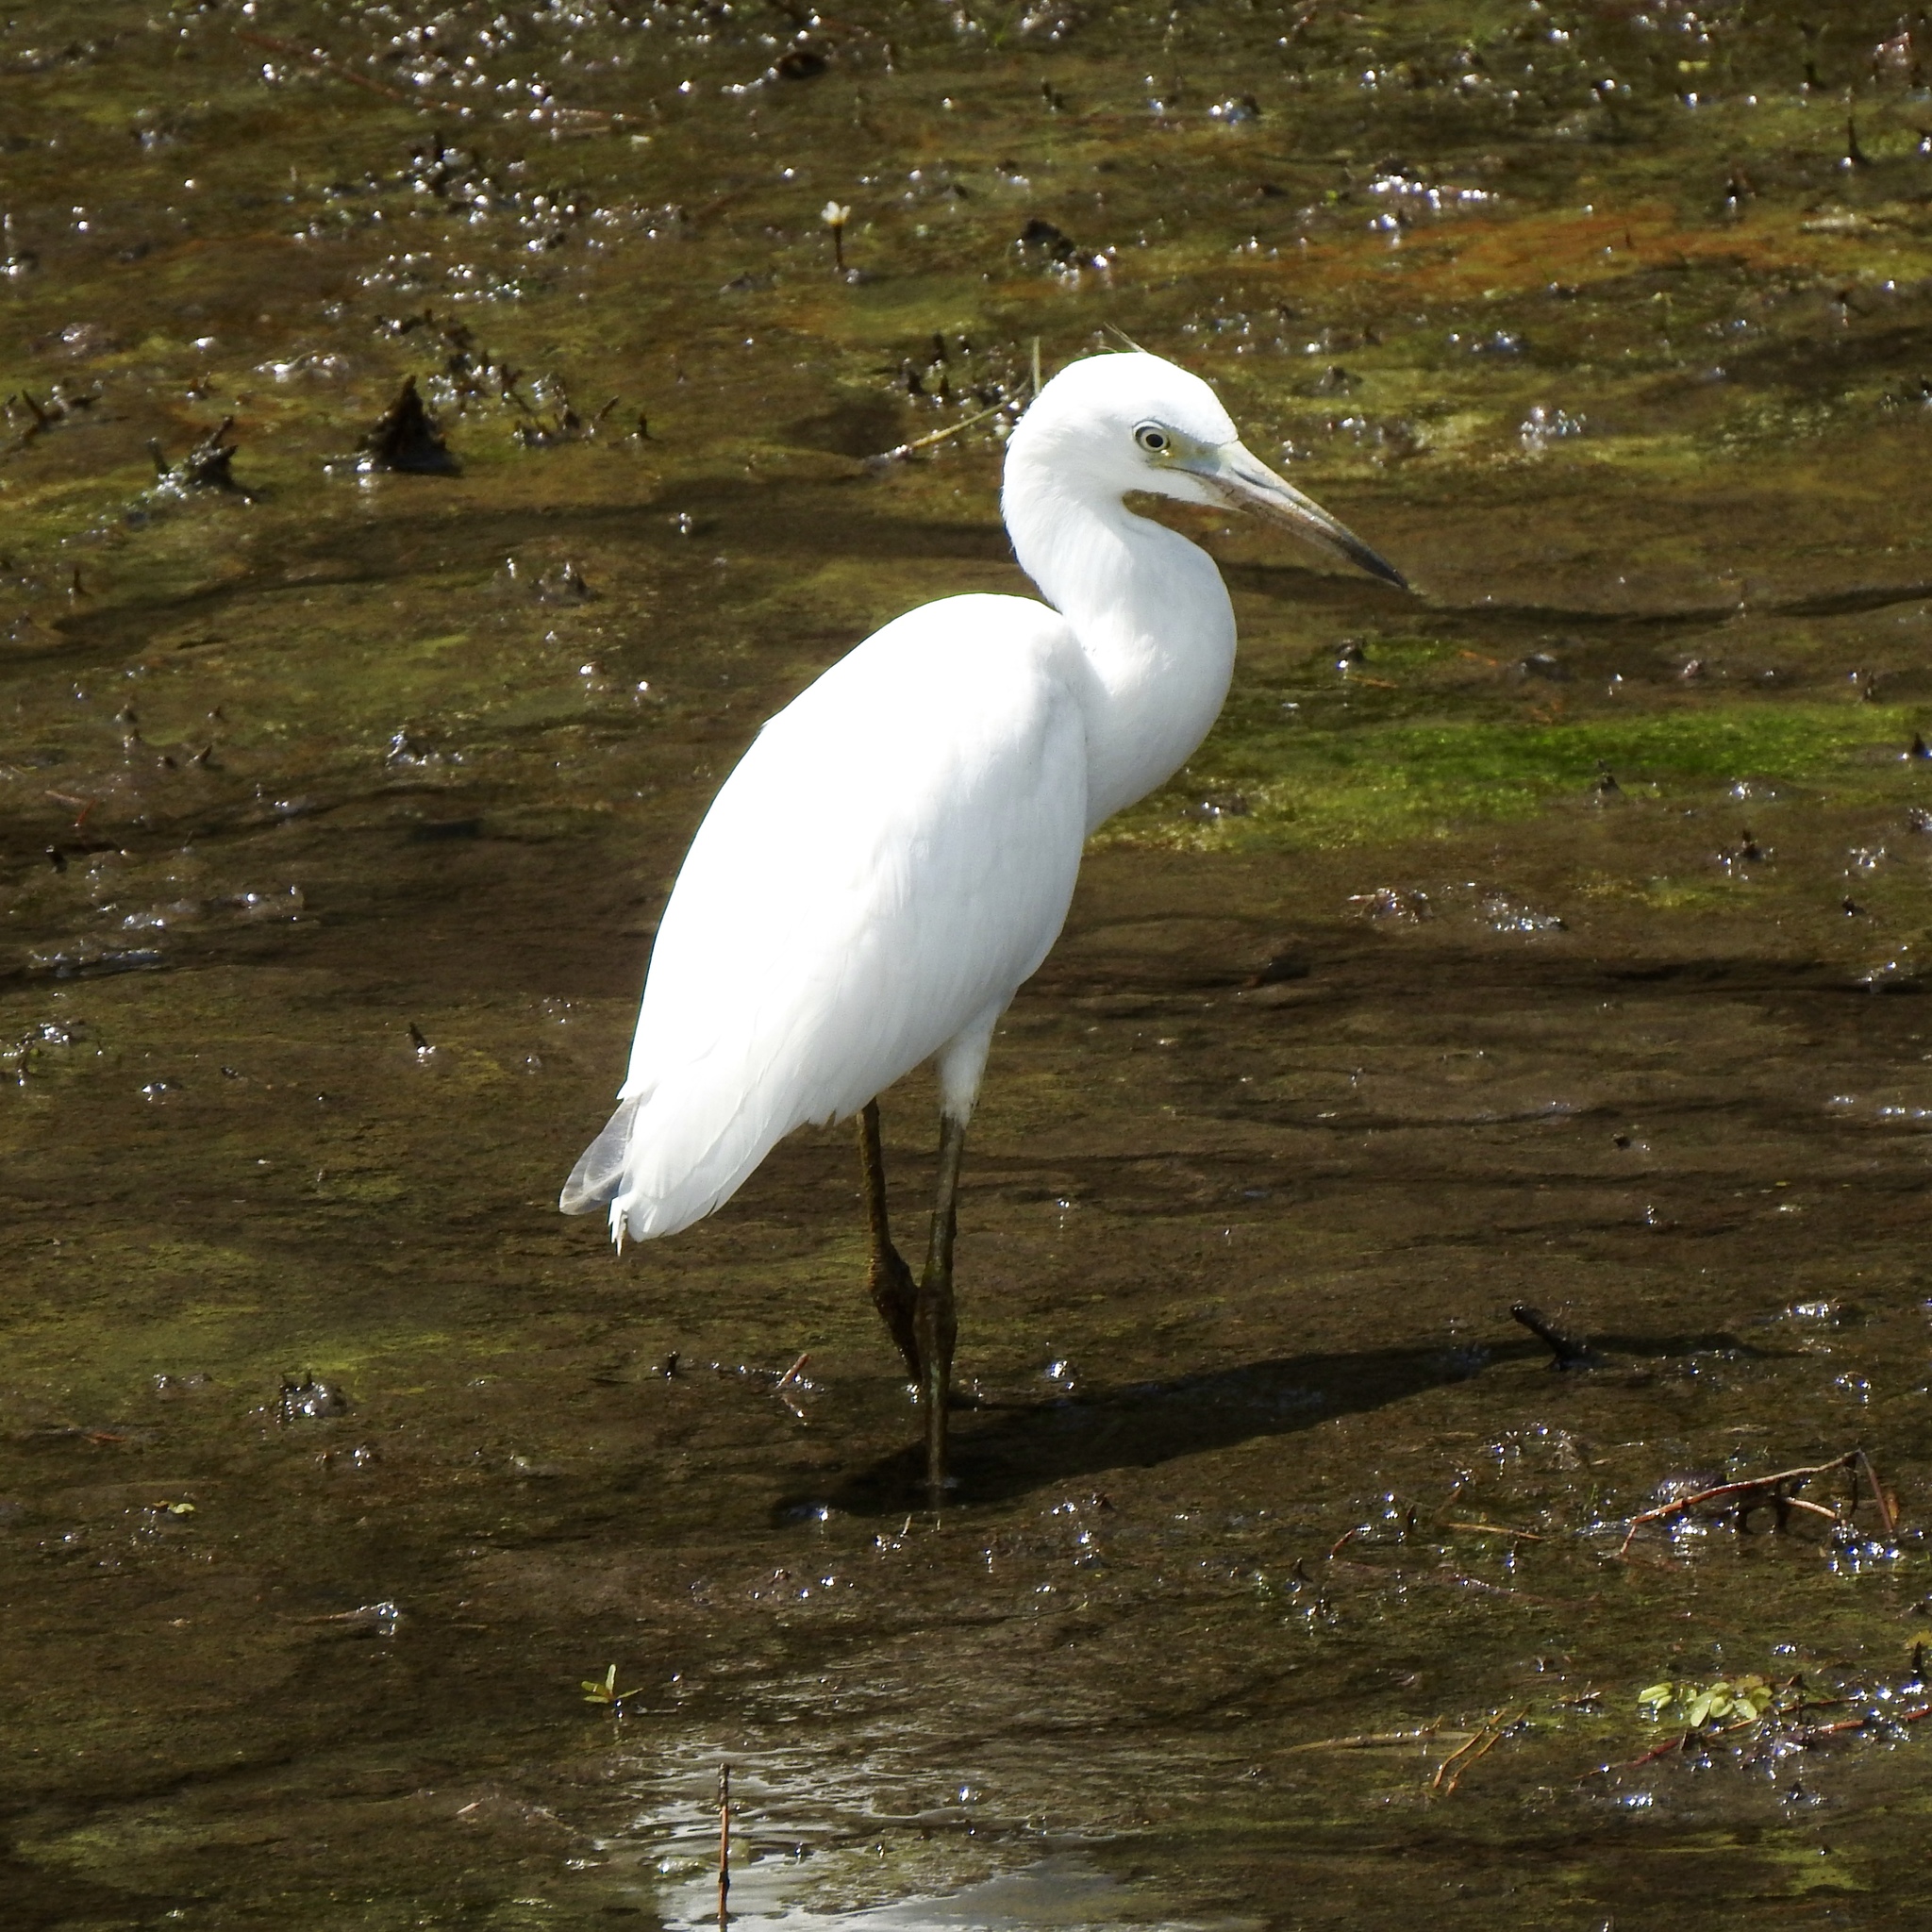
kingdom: Animalia
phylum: Chordata
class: Aves
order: Pelecaniformes
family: Ardeidae
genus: Egretta
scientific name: Egretta caerulea
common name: Little blue heron
